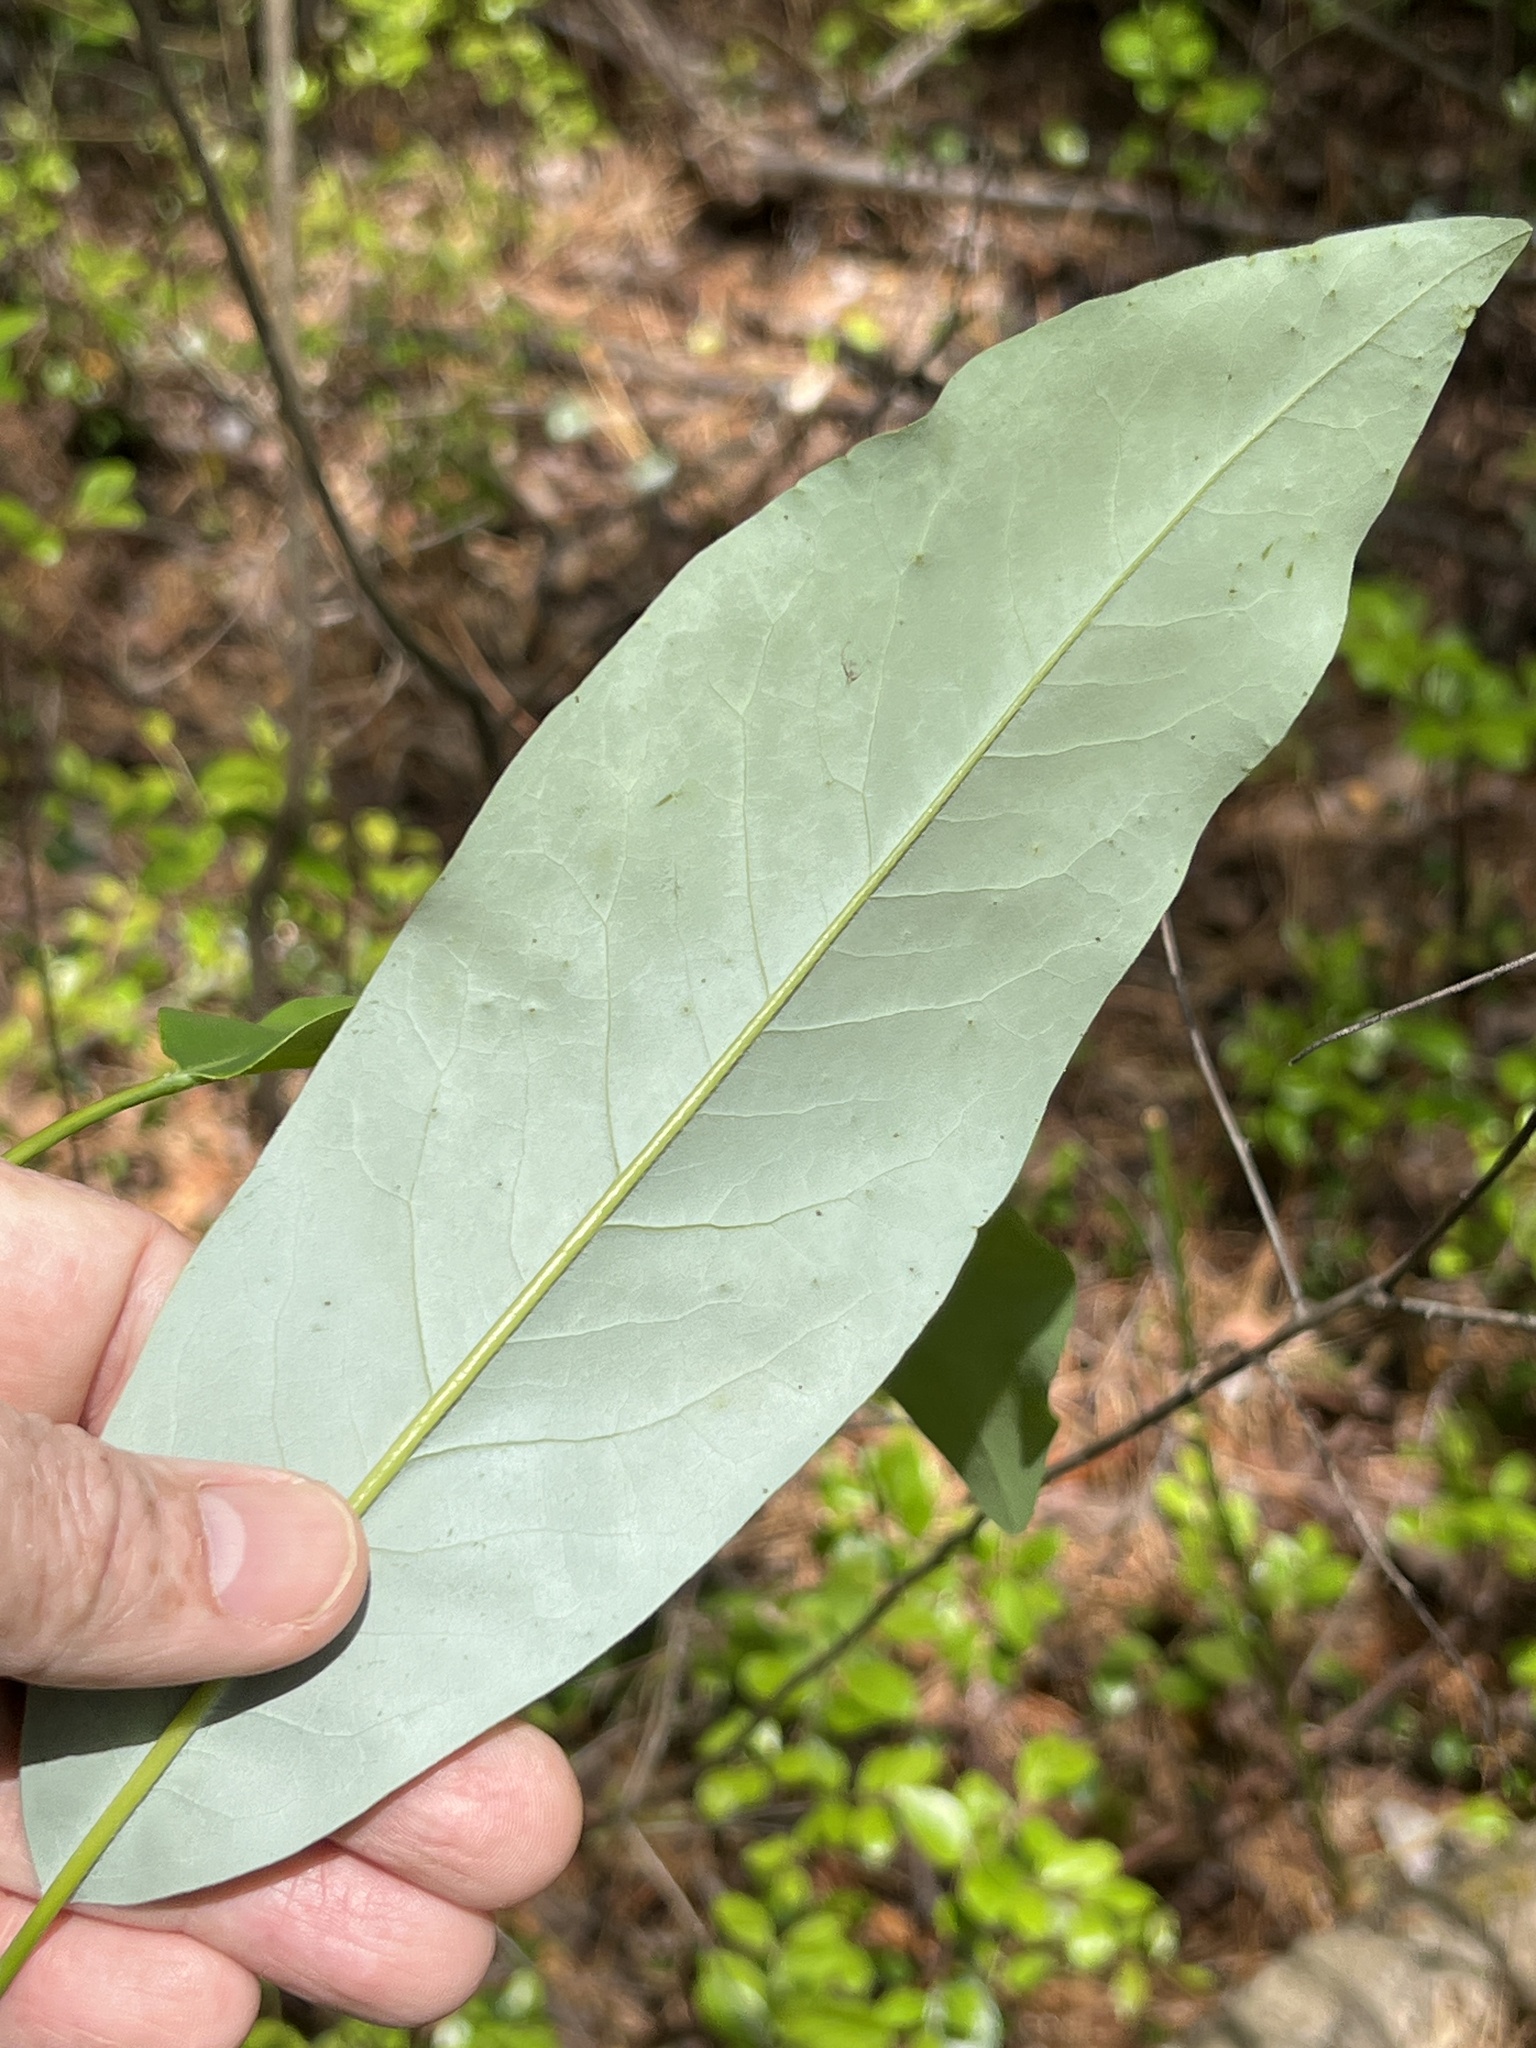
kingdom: Plantae
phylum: Tracheophyta
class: Magnoliopsida
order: Magnoliales
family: Magnoliaceae
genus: Magnolia
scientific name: Magnolia virginiana
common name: Swamp bay
